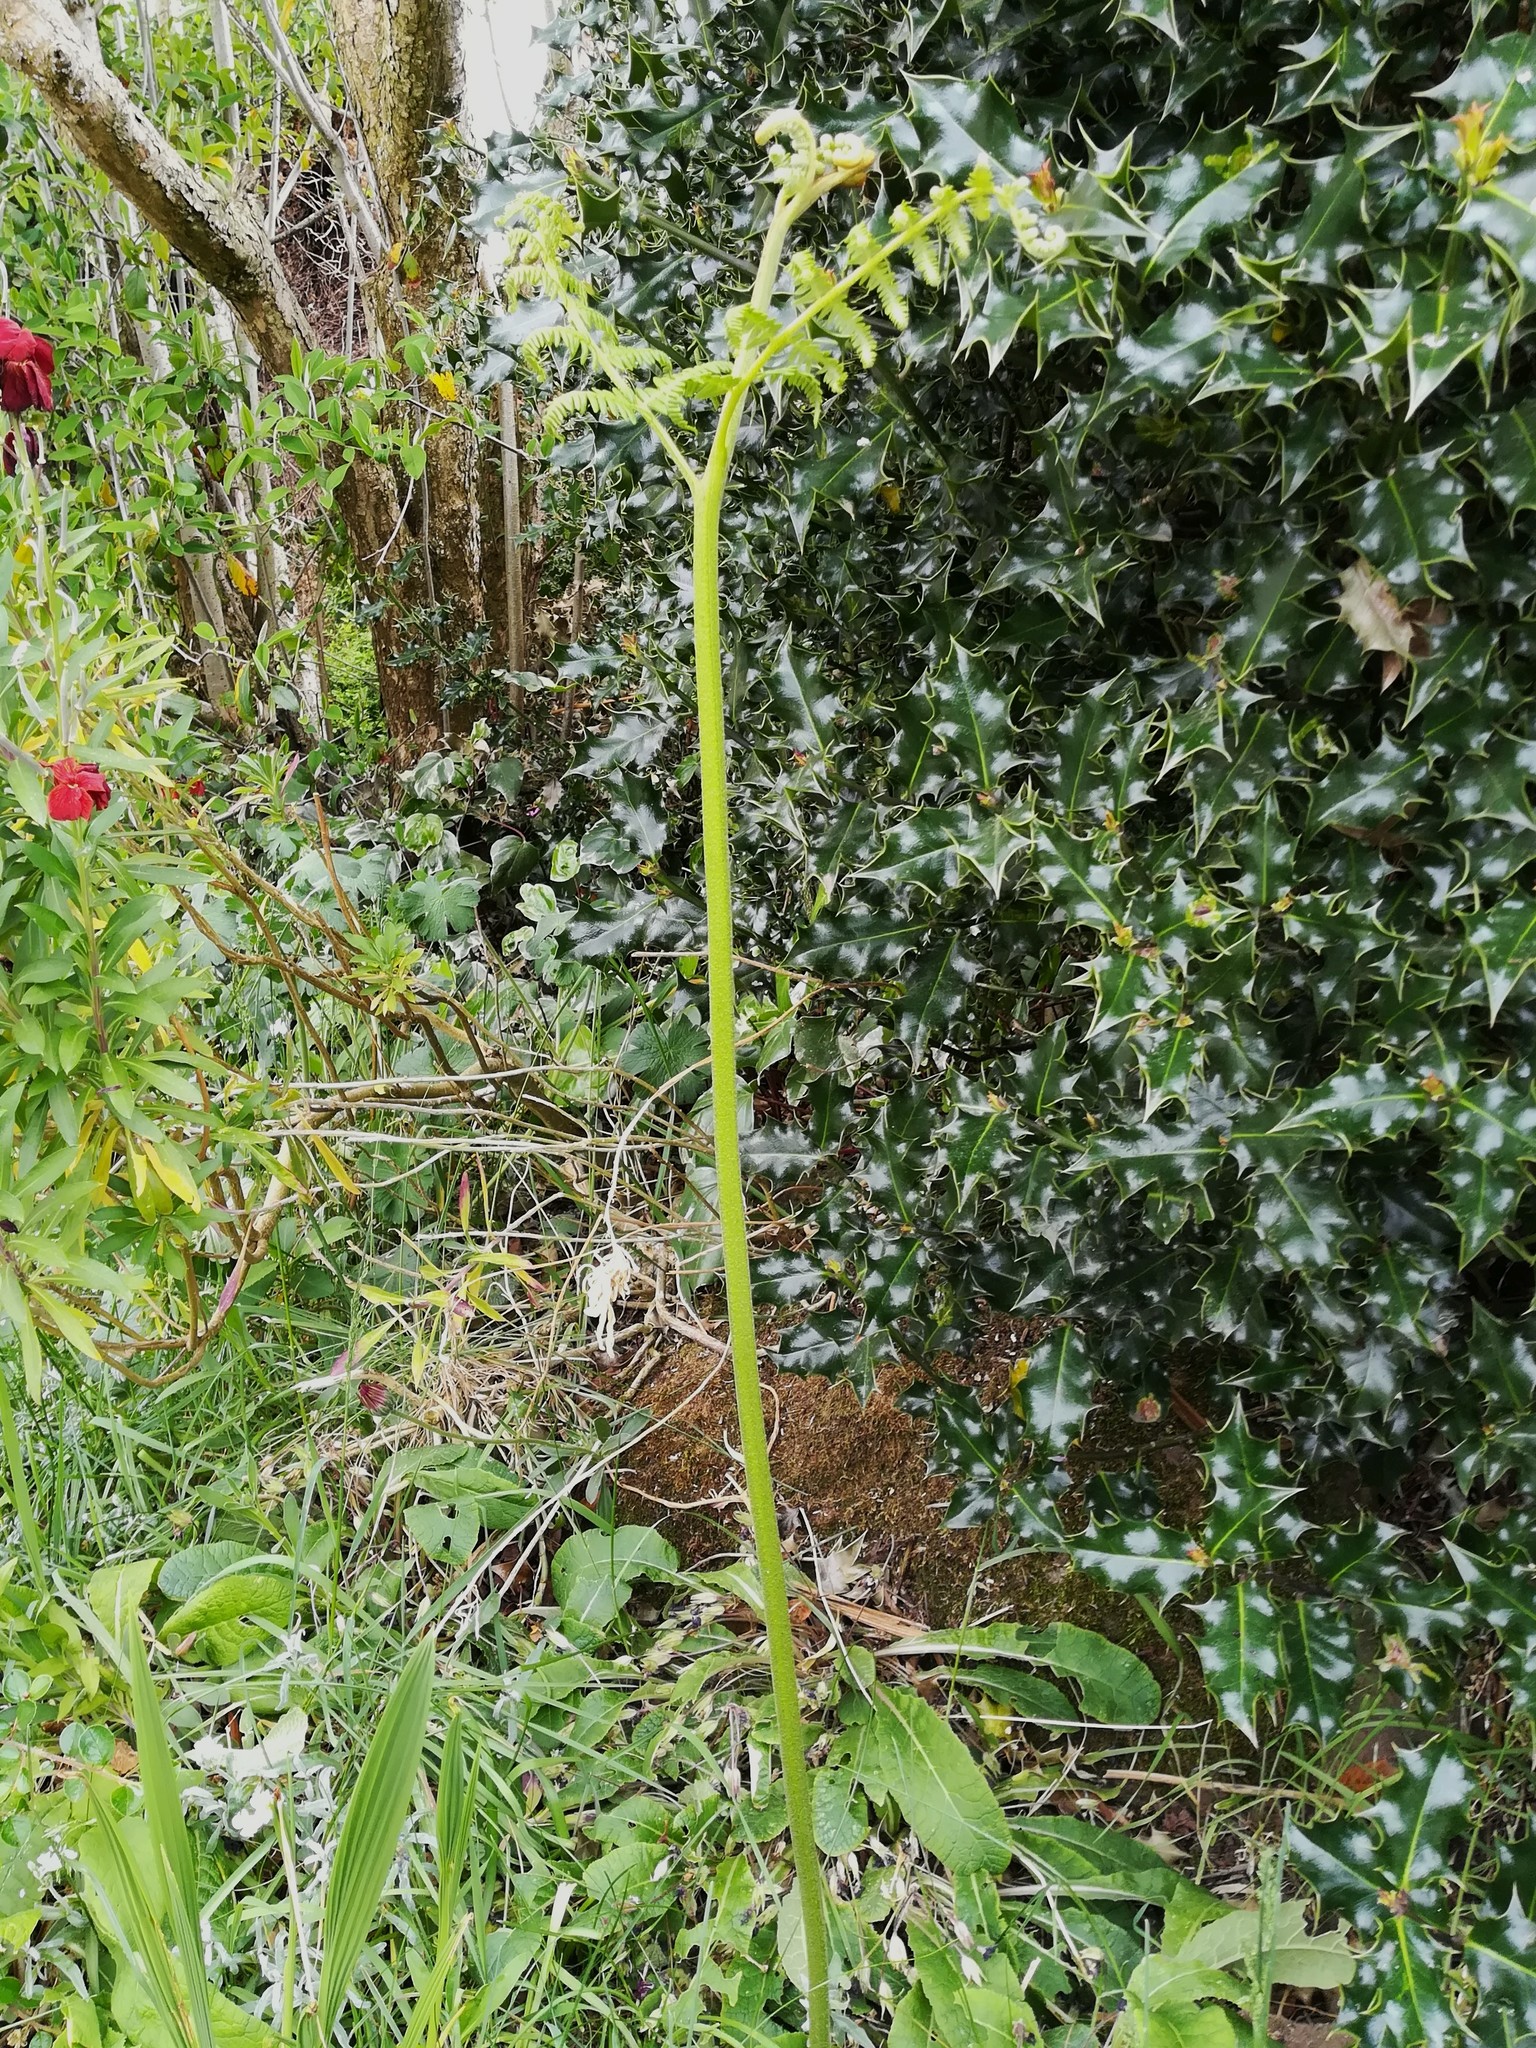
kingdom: Plantae
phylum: Tracheophyta
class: Polypodiopsida
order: Polypodiales
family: Dennstaedtiaceae
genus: Pteridium
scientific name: Pteridium aquilinum
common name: Bracken
